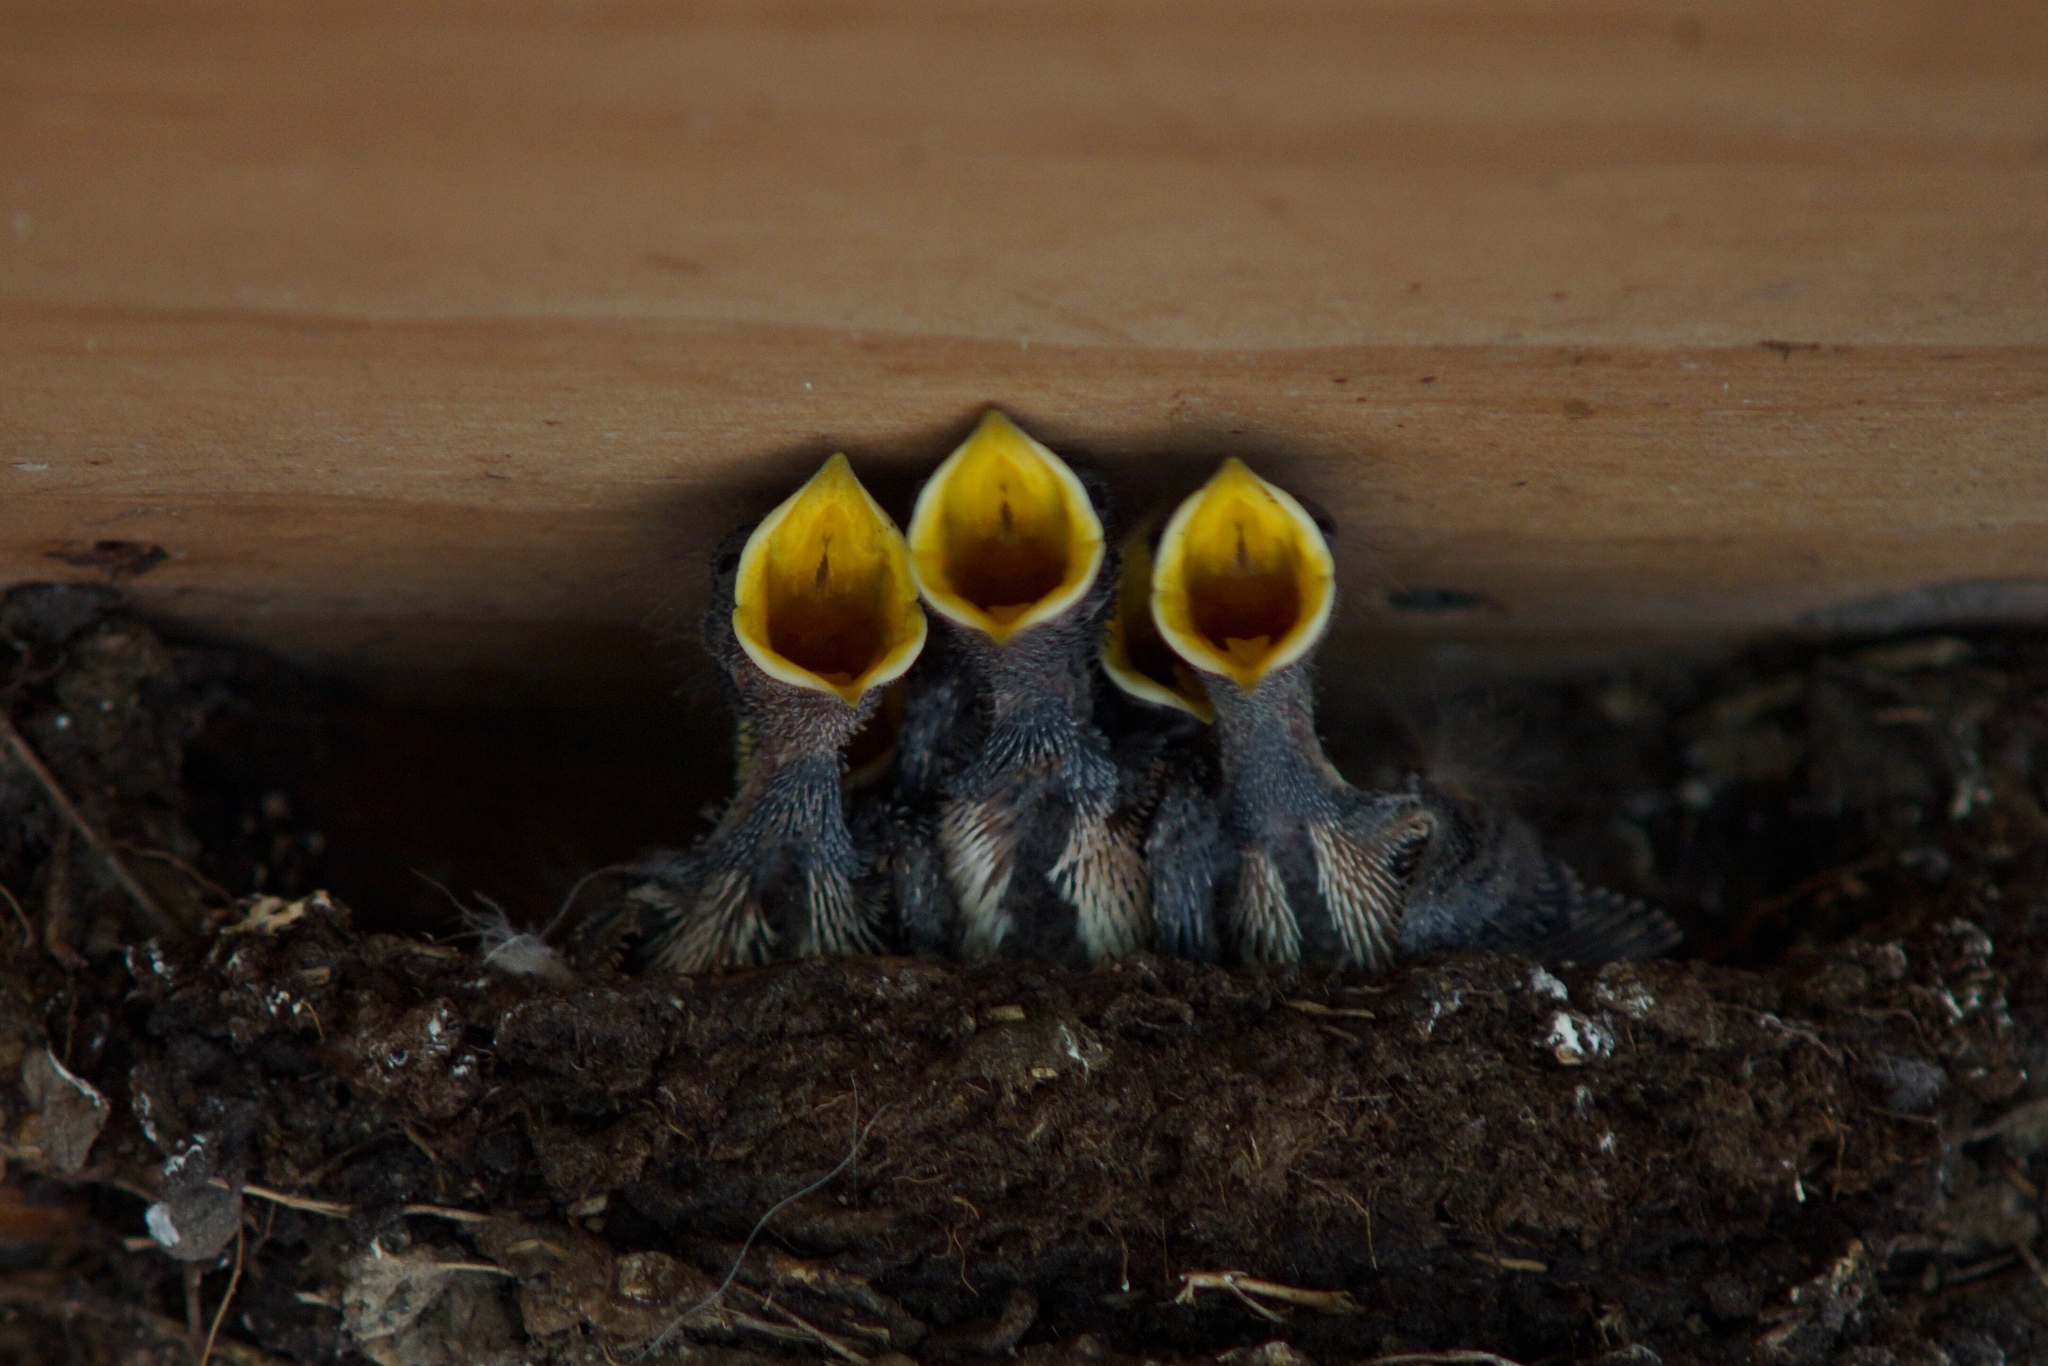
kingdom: Animalia
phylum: Chordata
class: Aves
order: Passeriformes
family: Hirundinidae
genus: Hirundo
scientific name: Hirundo rustica
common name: Barn swallow
